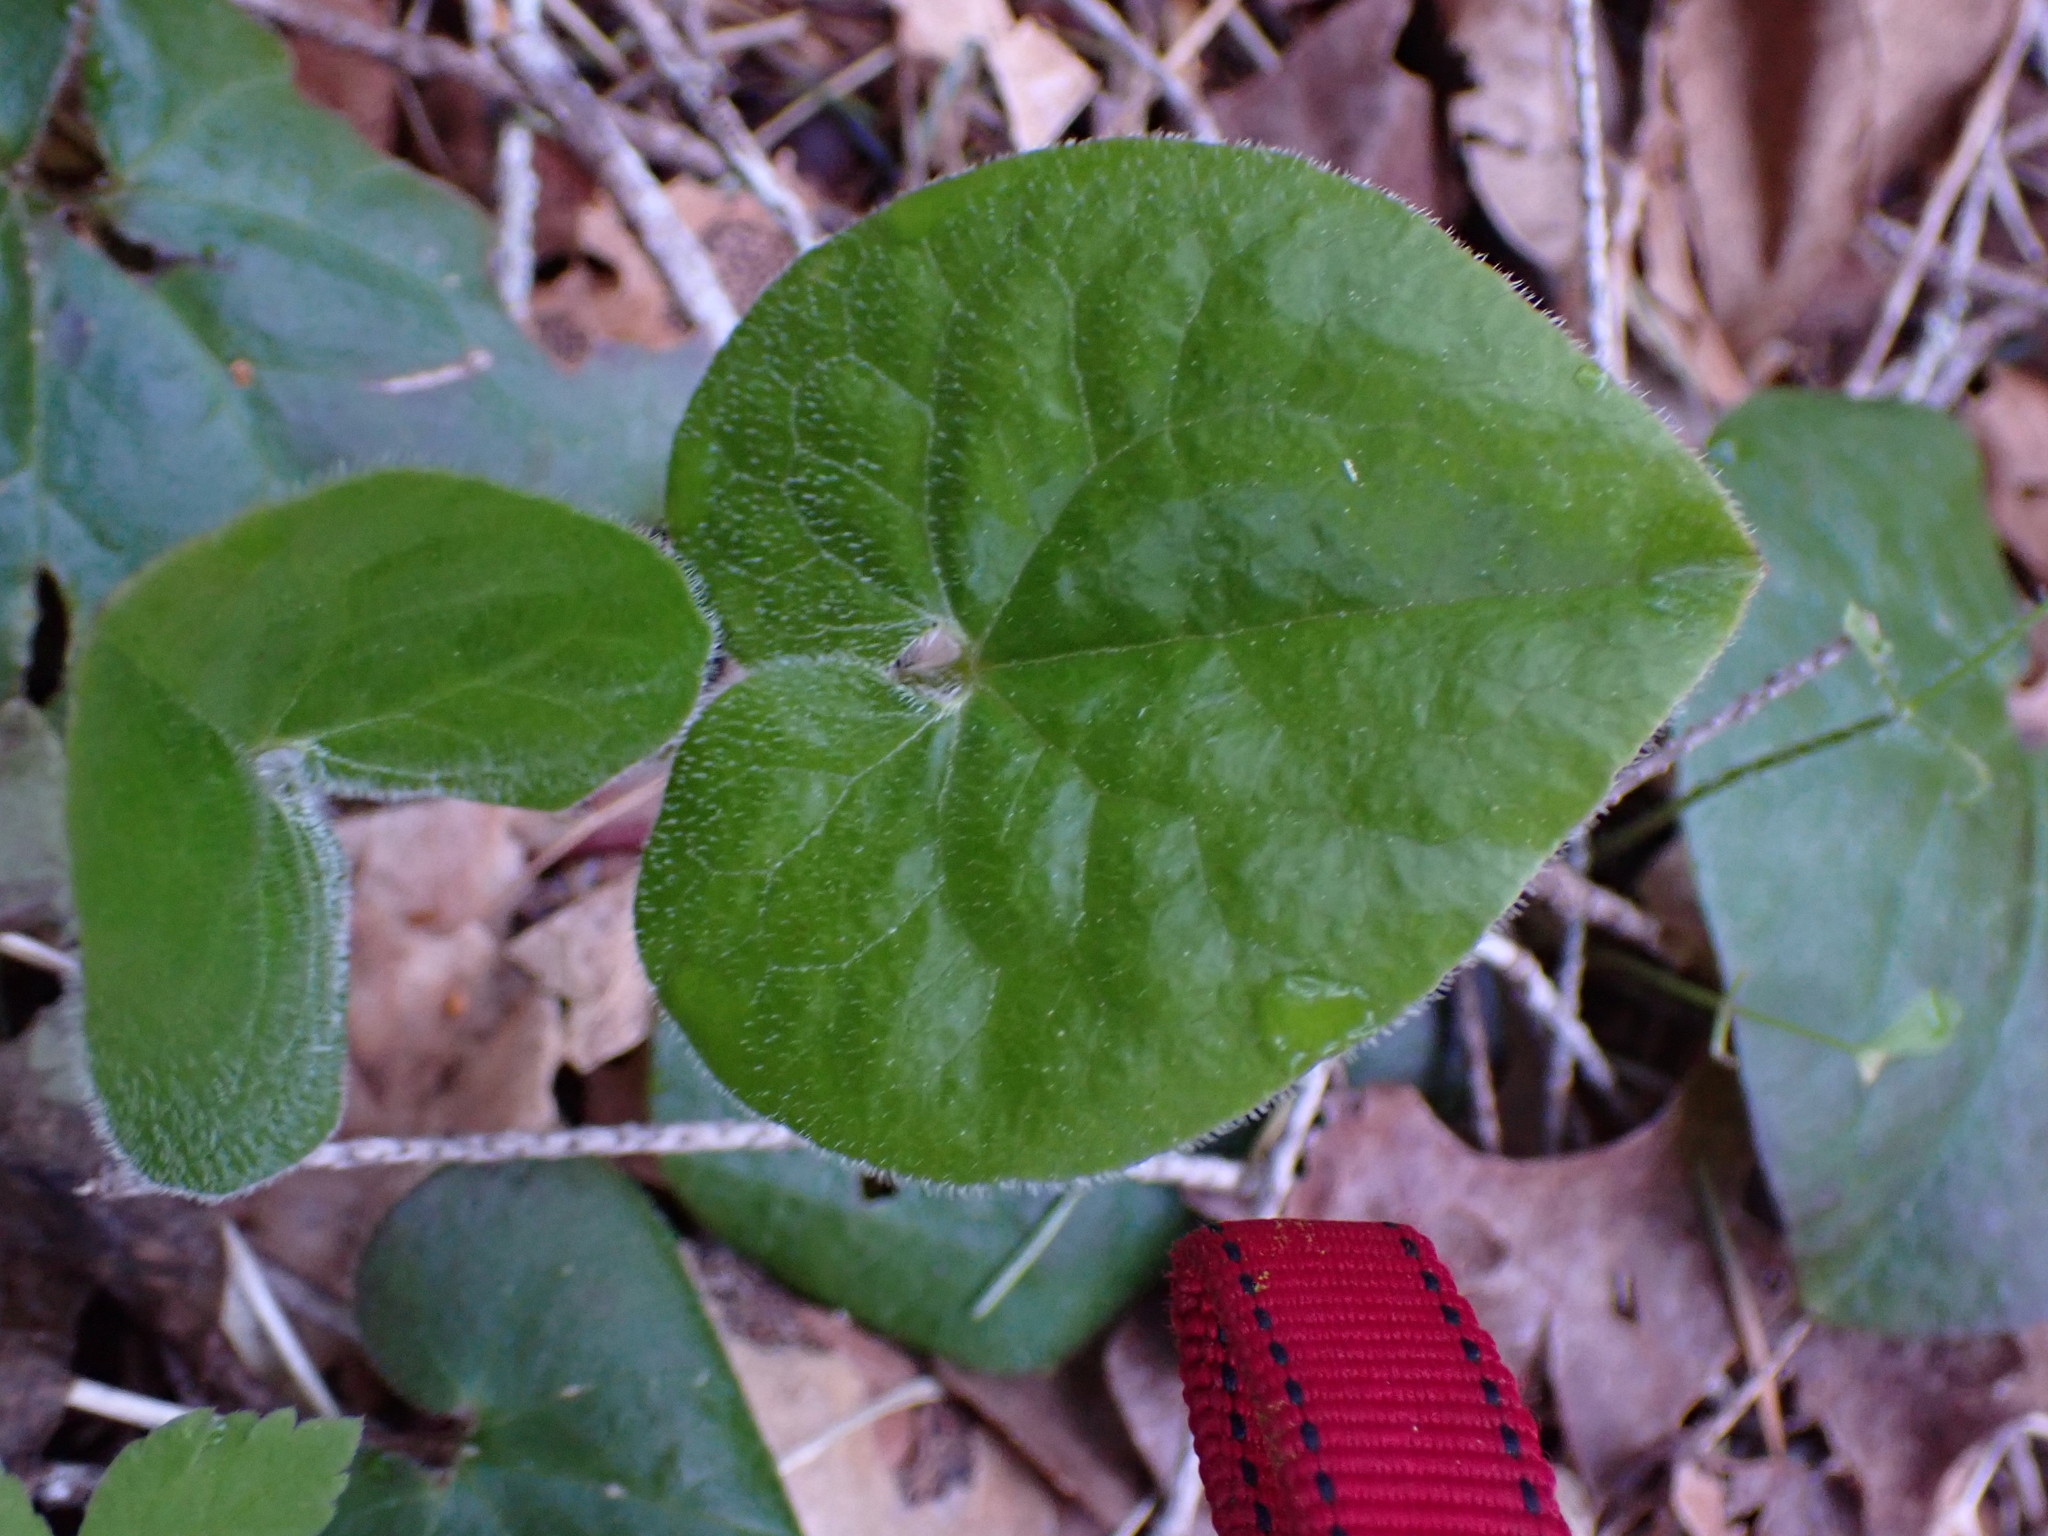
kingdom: Plantae
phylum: Tracheophyta
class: Magnoliopsida
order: Piperales
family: Aristolochiaceae
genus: Asarum
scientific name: Asarum caudatum
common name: Wild ginger
